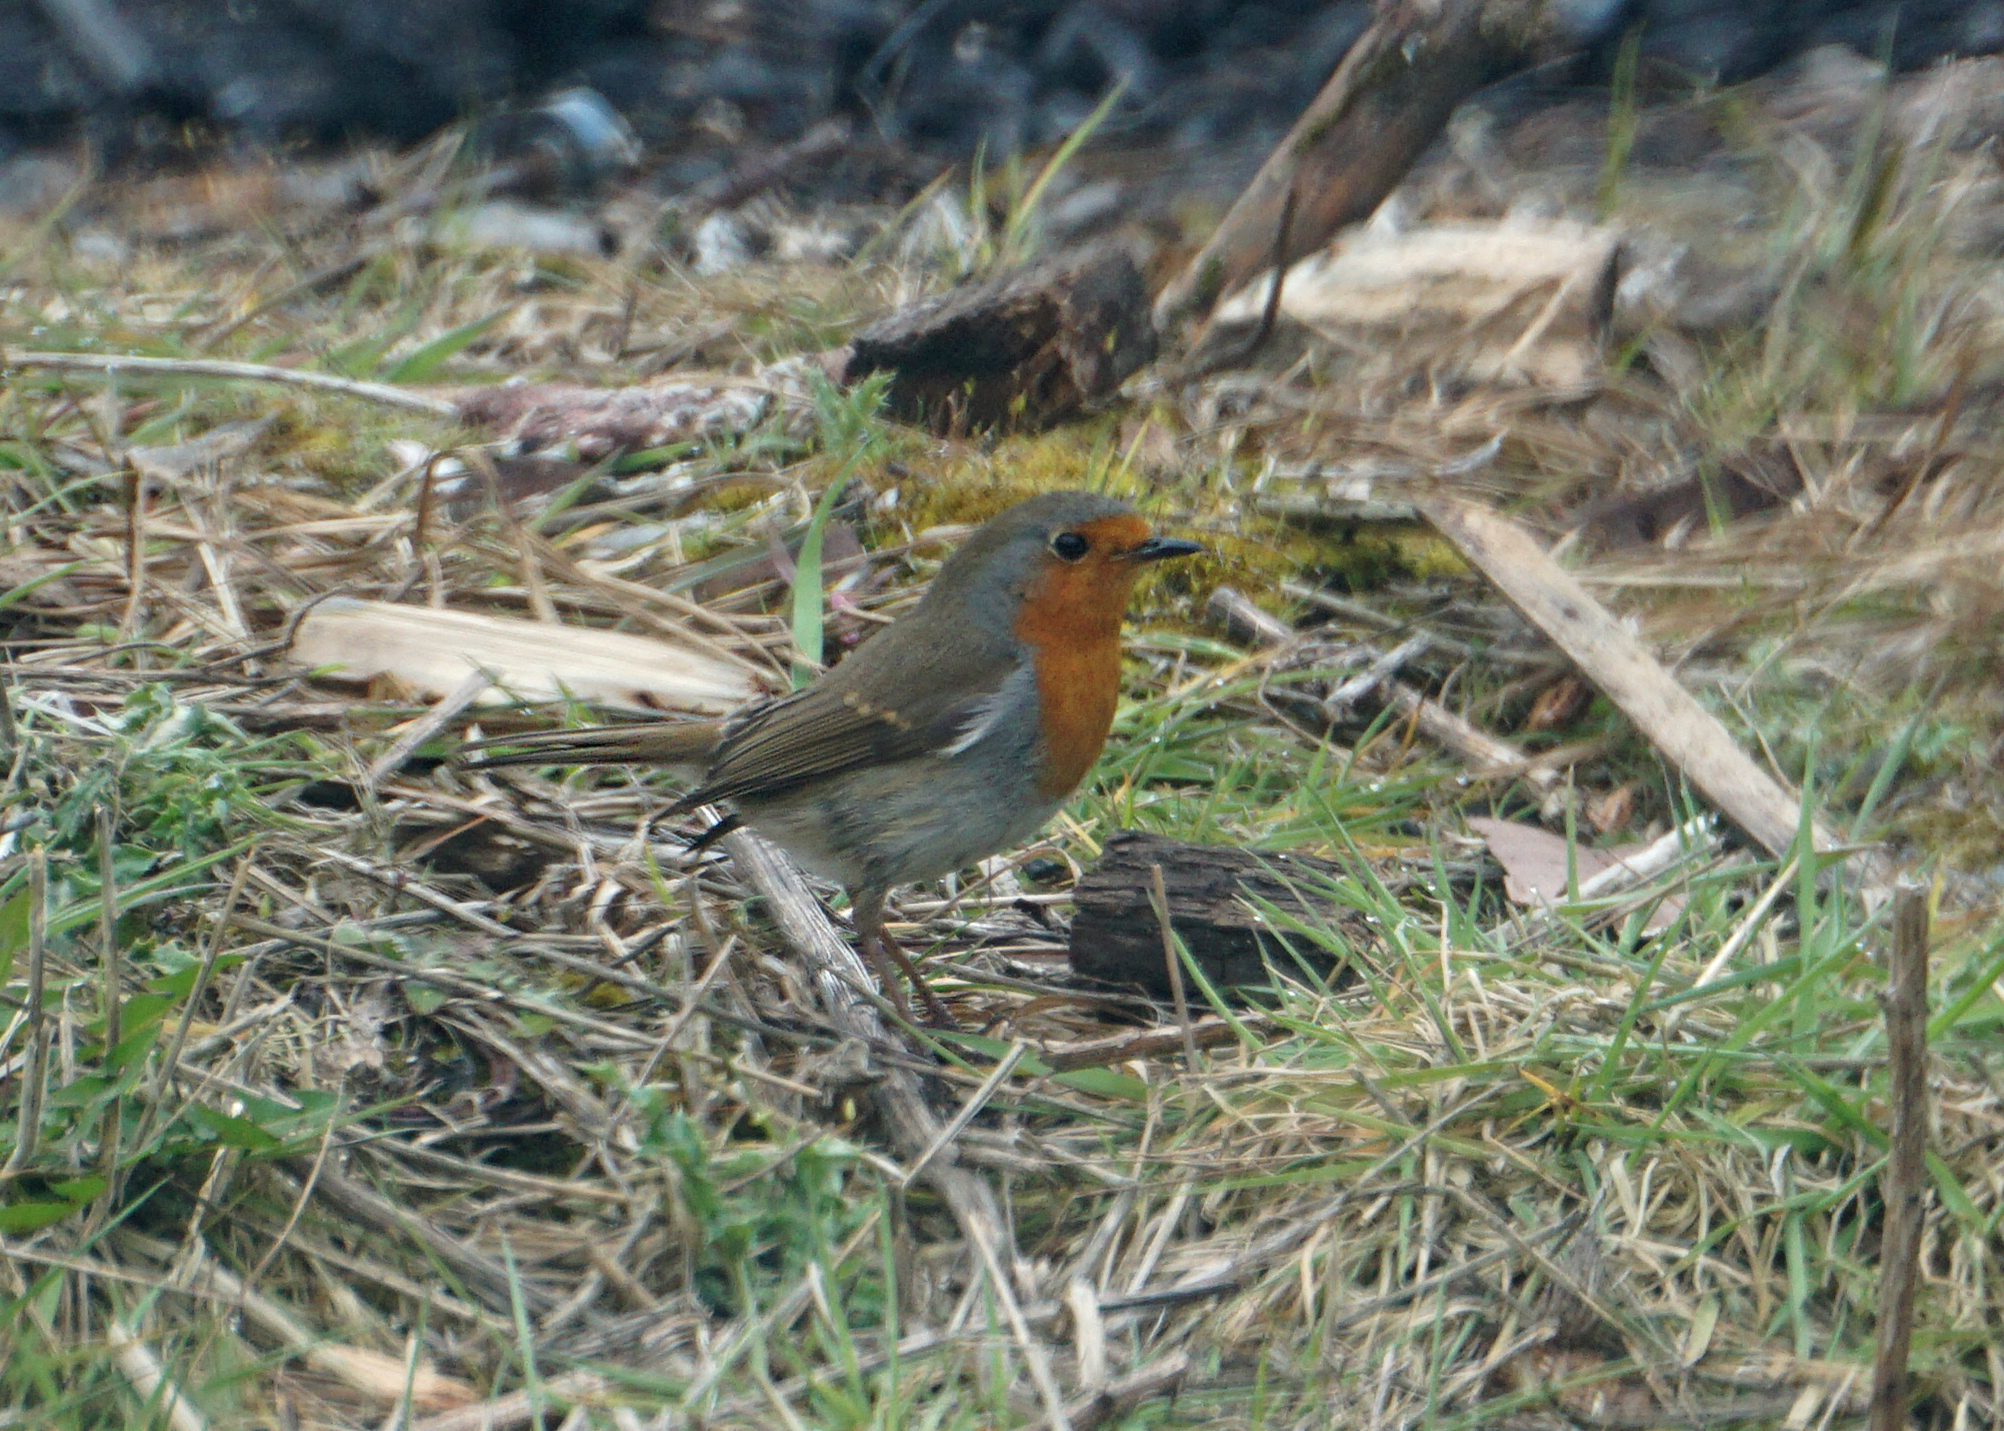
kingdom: Animalia
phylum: Chordata
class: Aves
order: Passeriformes
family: Muscicapidae
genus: Erithacus
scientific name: Erithacus rubecula
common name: European robin
